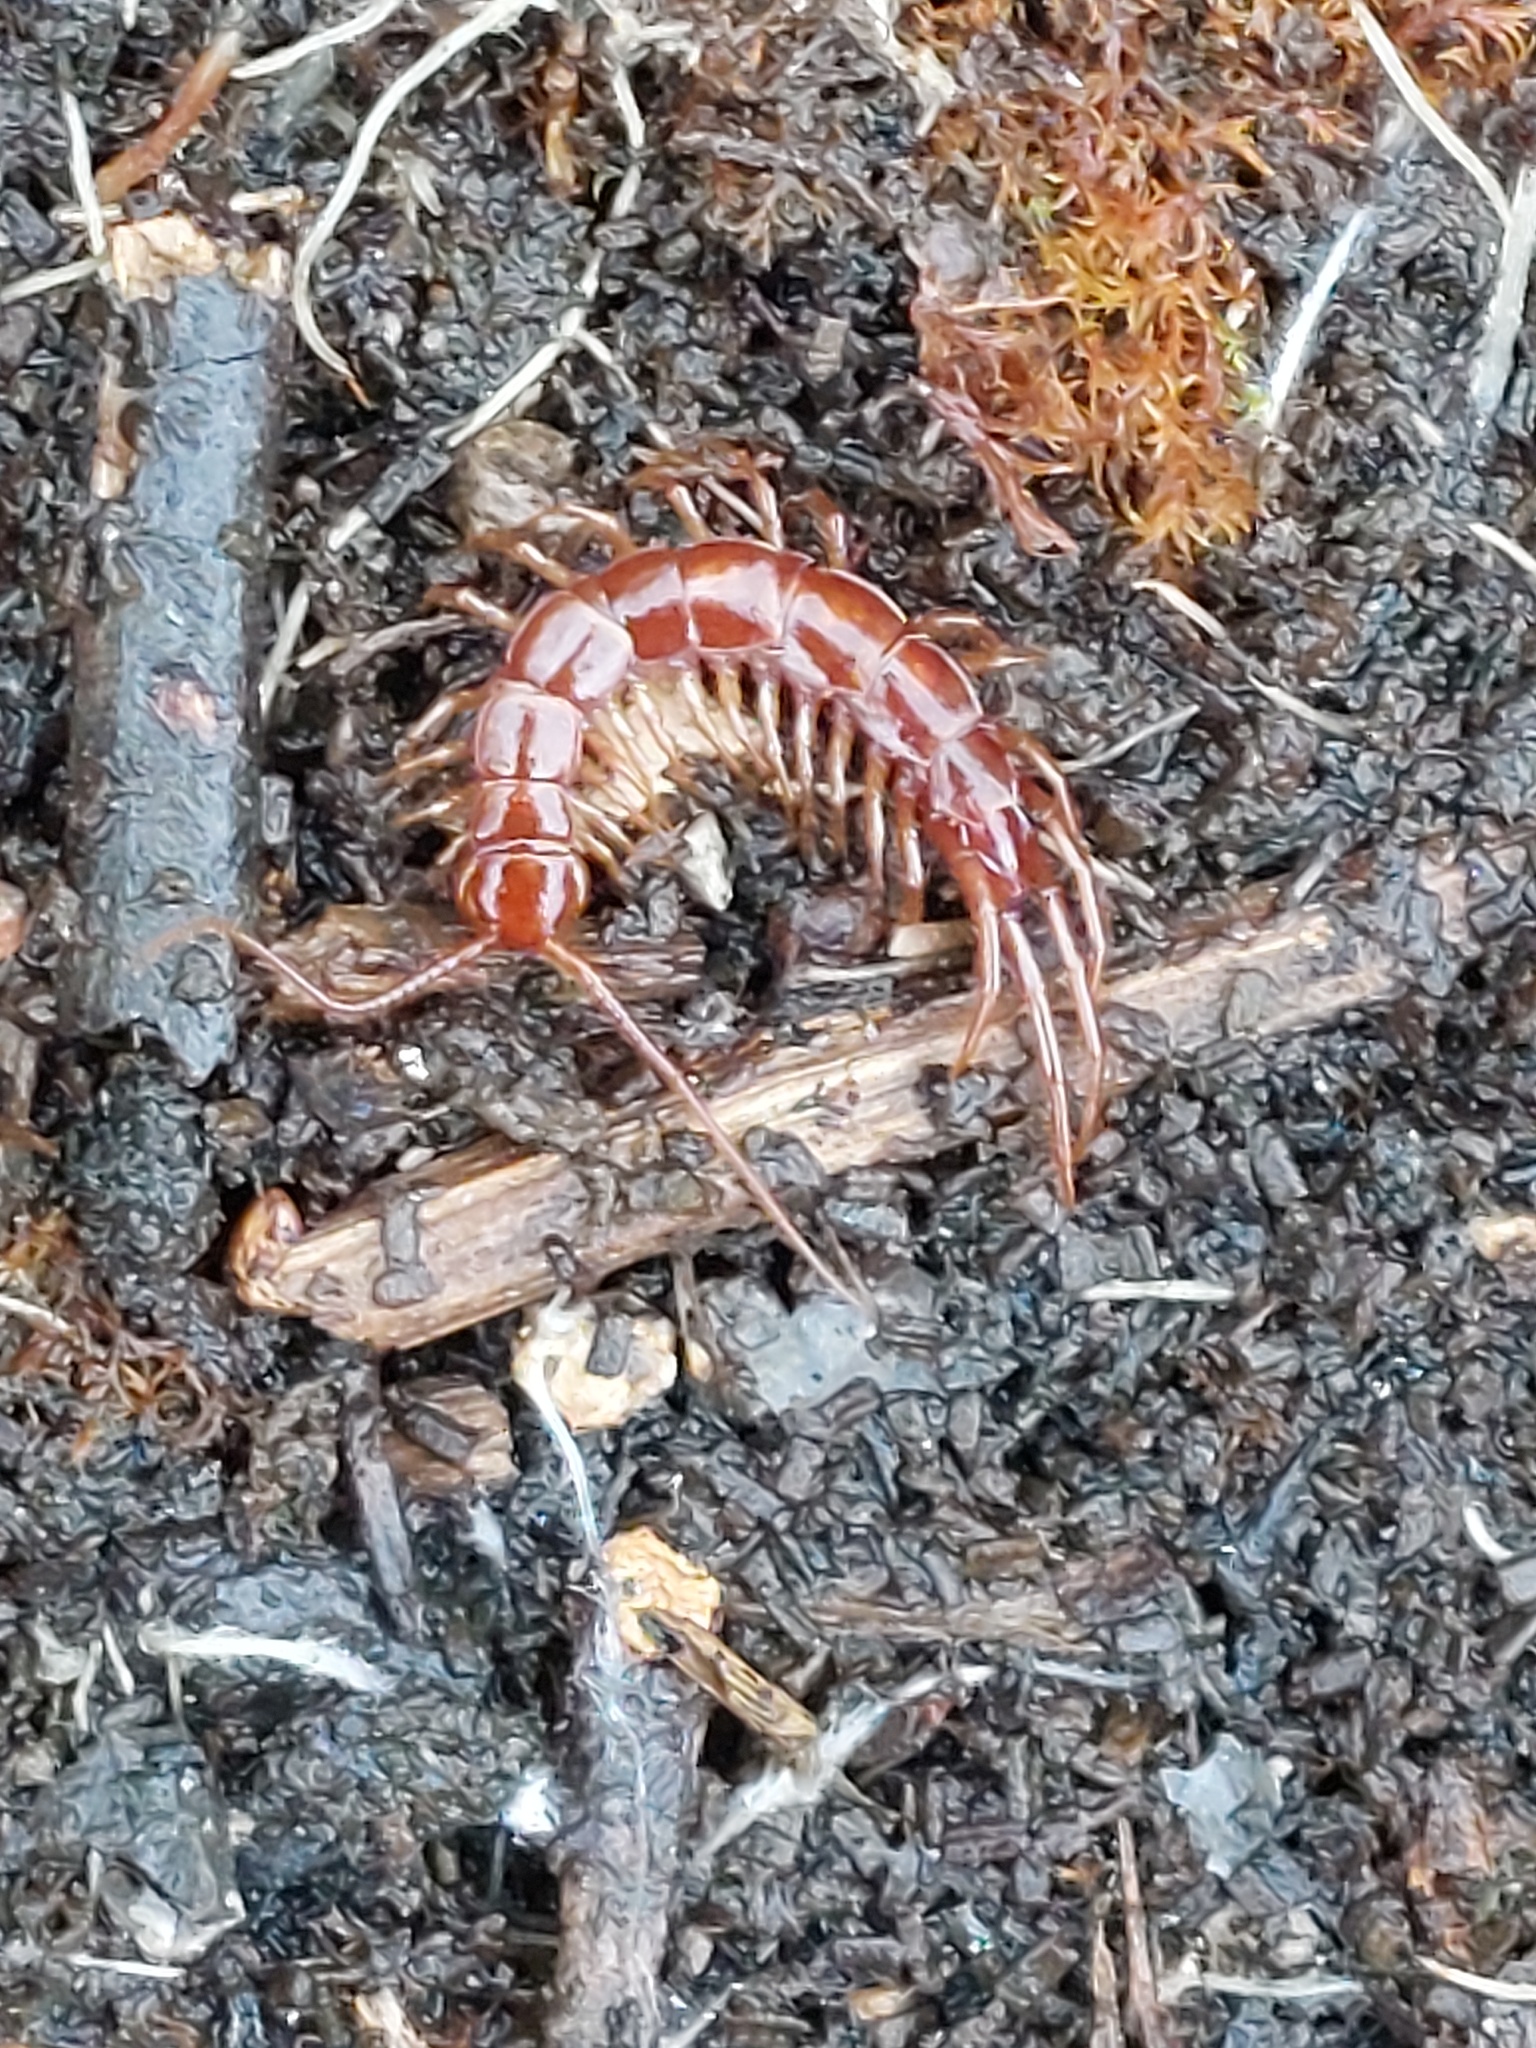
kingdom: Animalia
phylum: Arthropoda
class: Chilopoda
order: Lithobiomorpha
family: Lithobiidae
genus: Lithobius
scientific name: Lithobius forficatus
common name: Centipede
